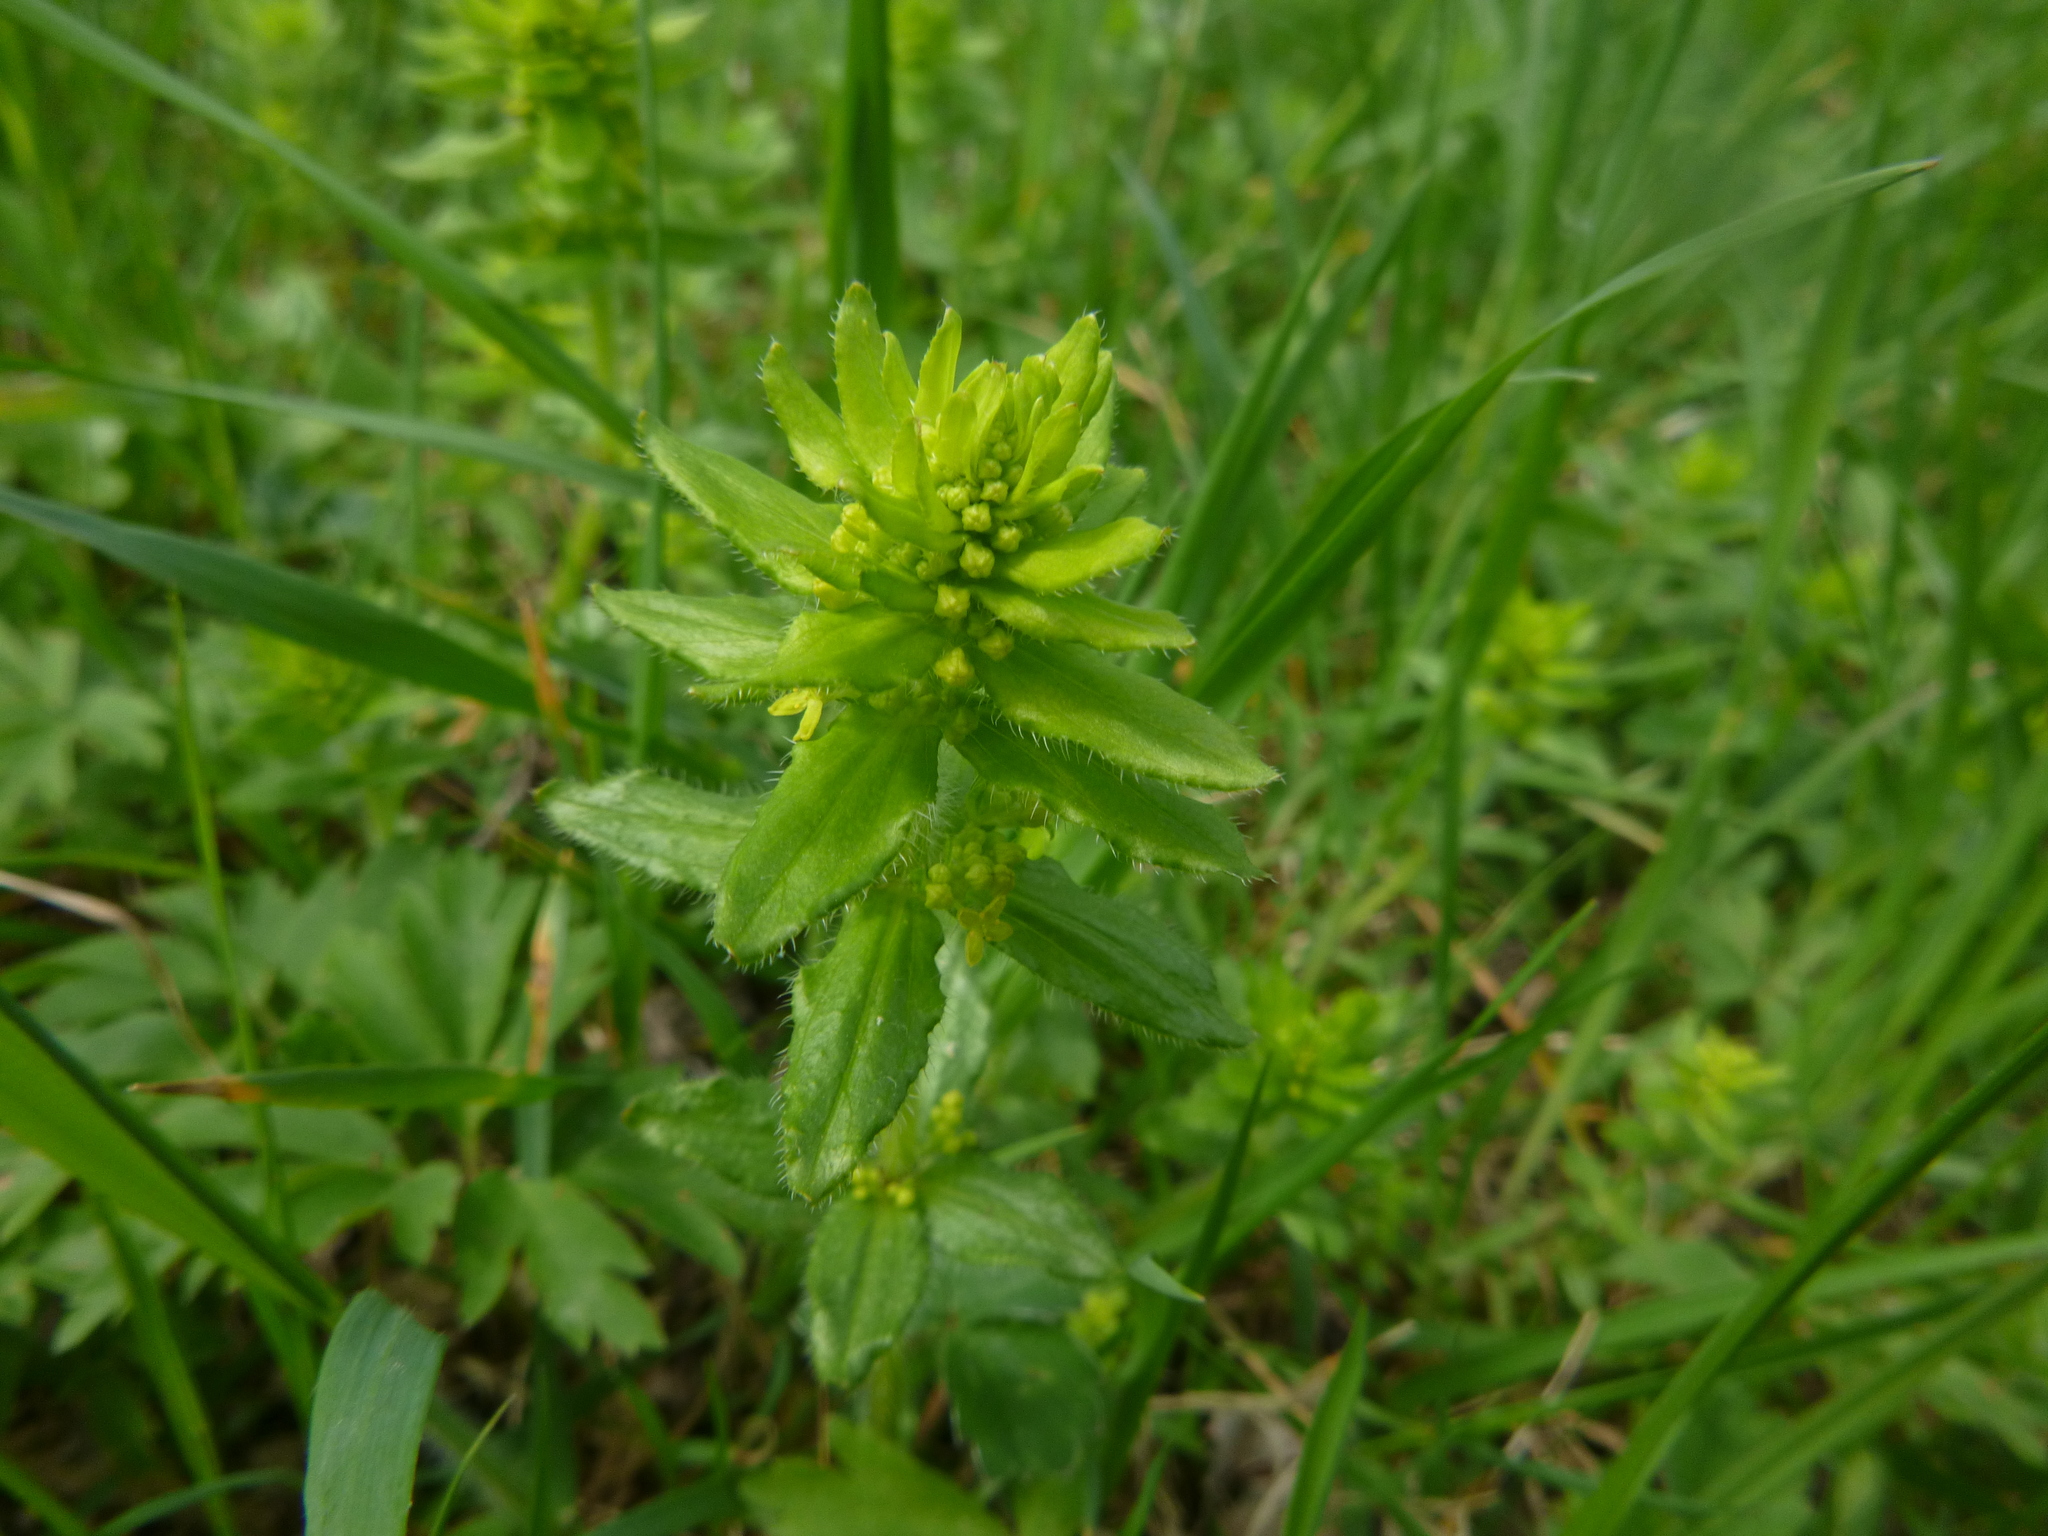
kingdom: Plantae
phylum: Tracheophyta
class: Magnoliopsida
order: Gentianales
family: Rubiaceae
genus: Cruciata
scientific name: Cruciata laevipes
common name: Crosswort
